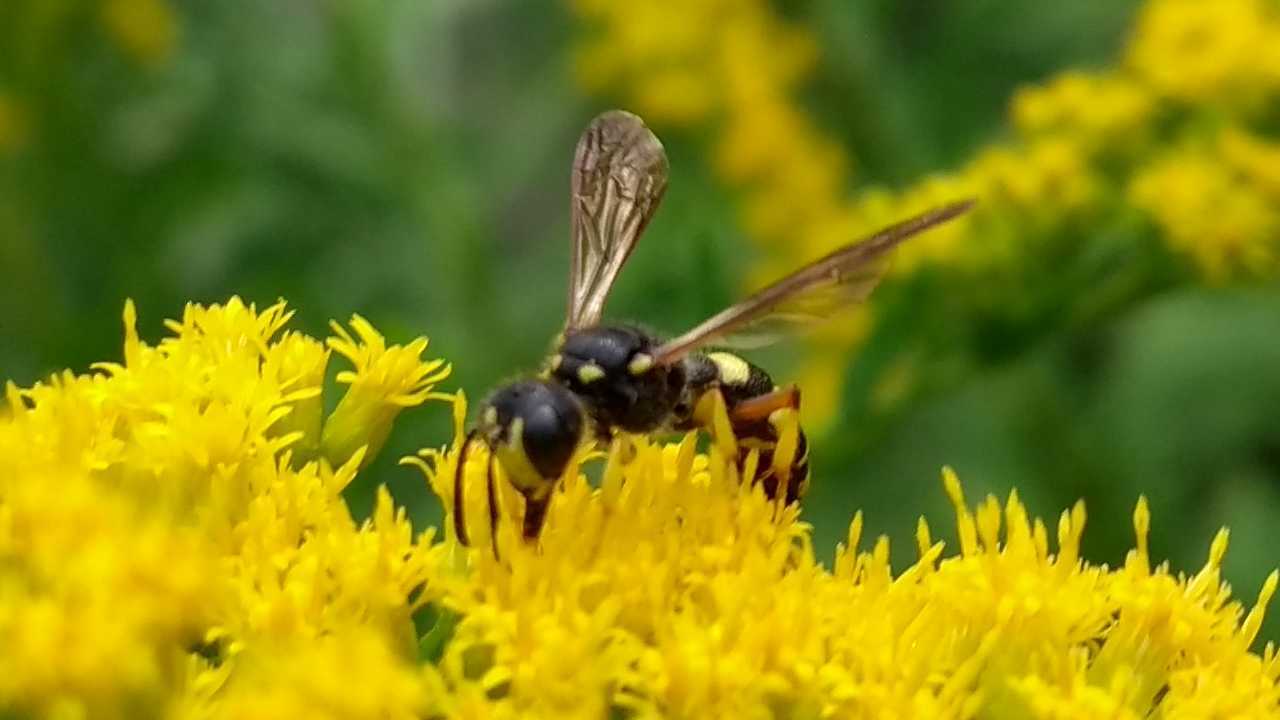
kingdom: Animalia
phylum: Arthropoda
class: Insecta
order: Hymenoptera
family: Crabronidae
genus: Cerceris
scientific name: Cerceris rybyensis
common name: Ornate tailed digger wasp
